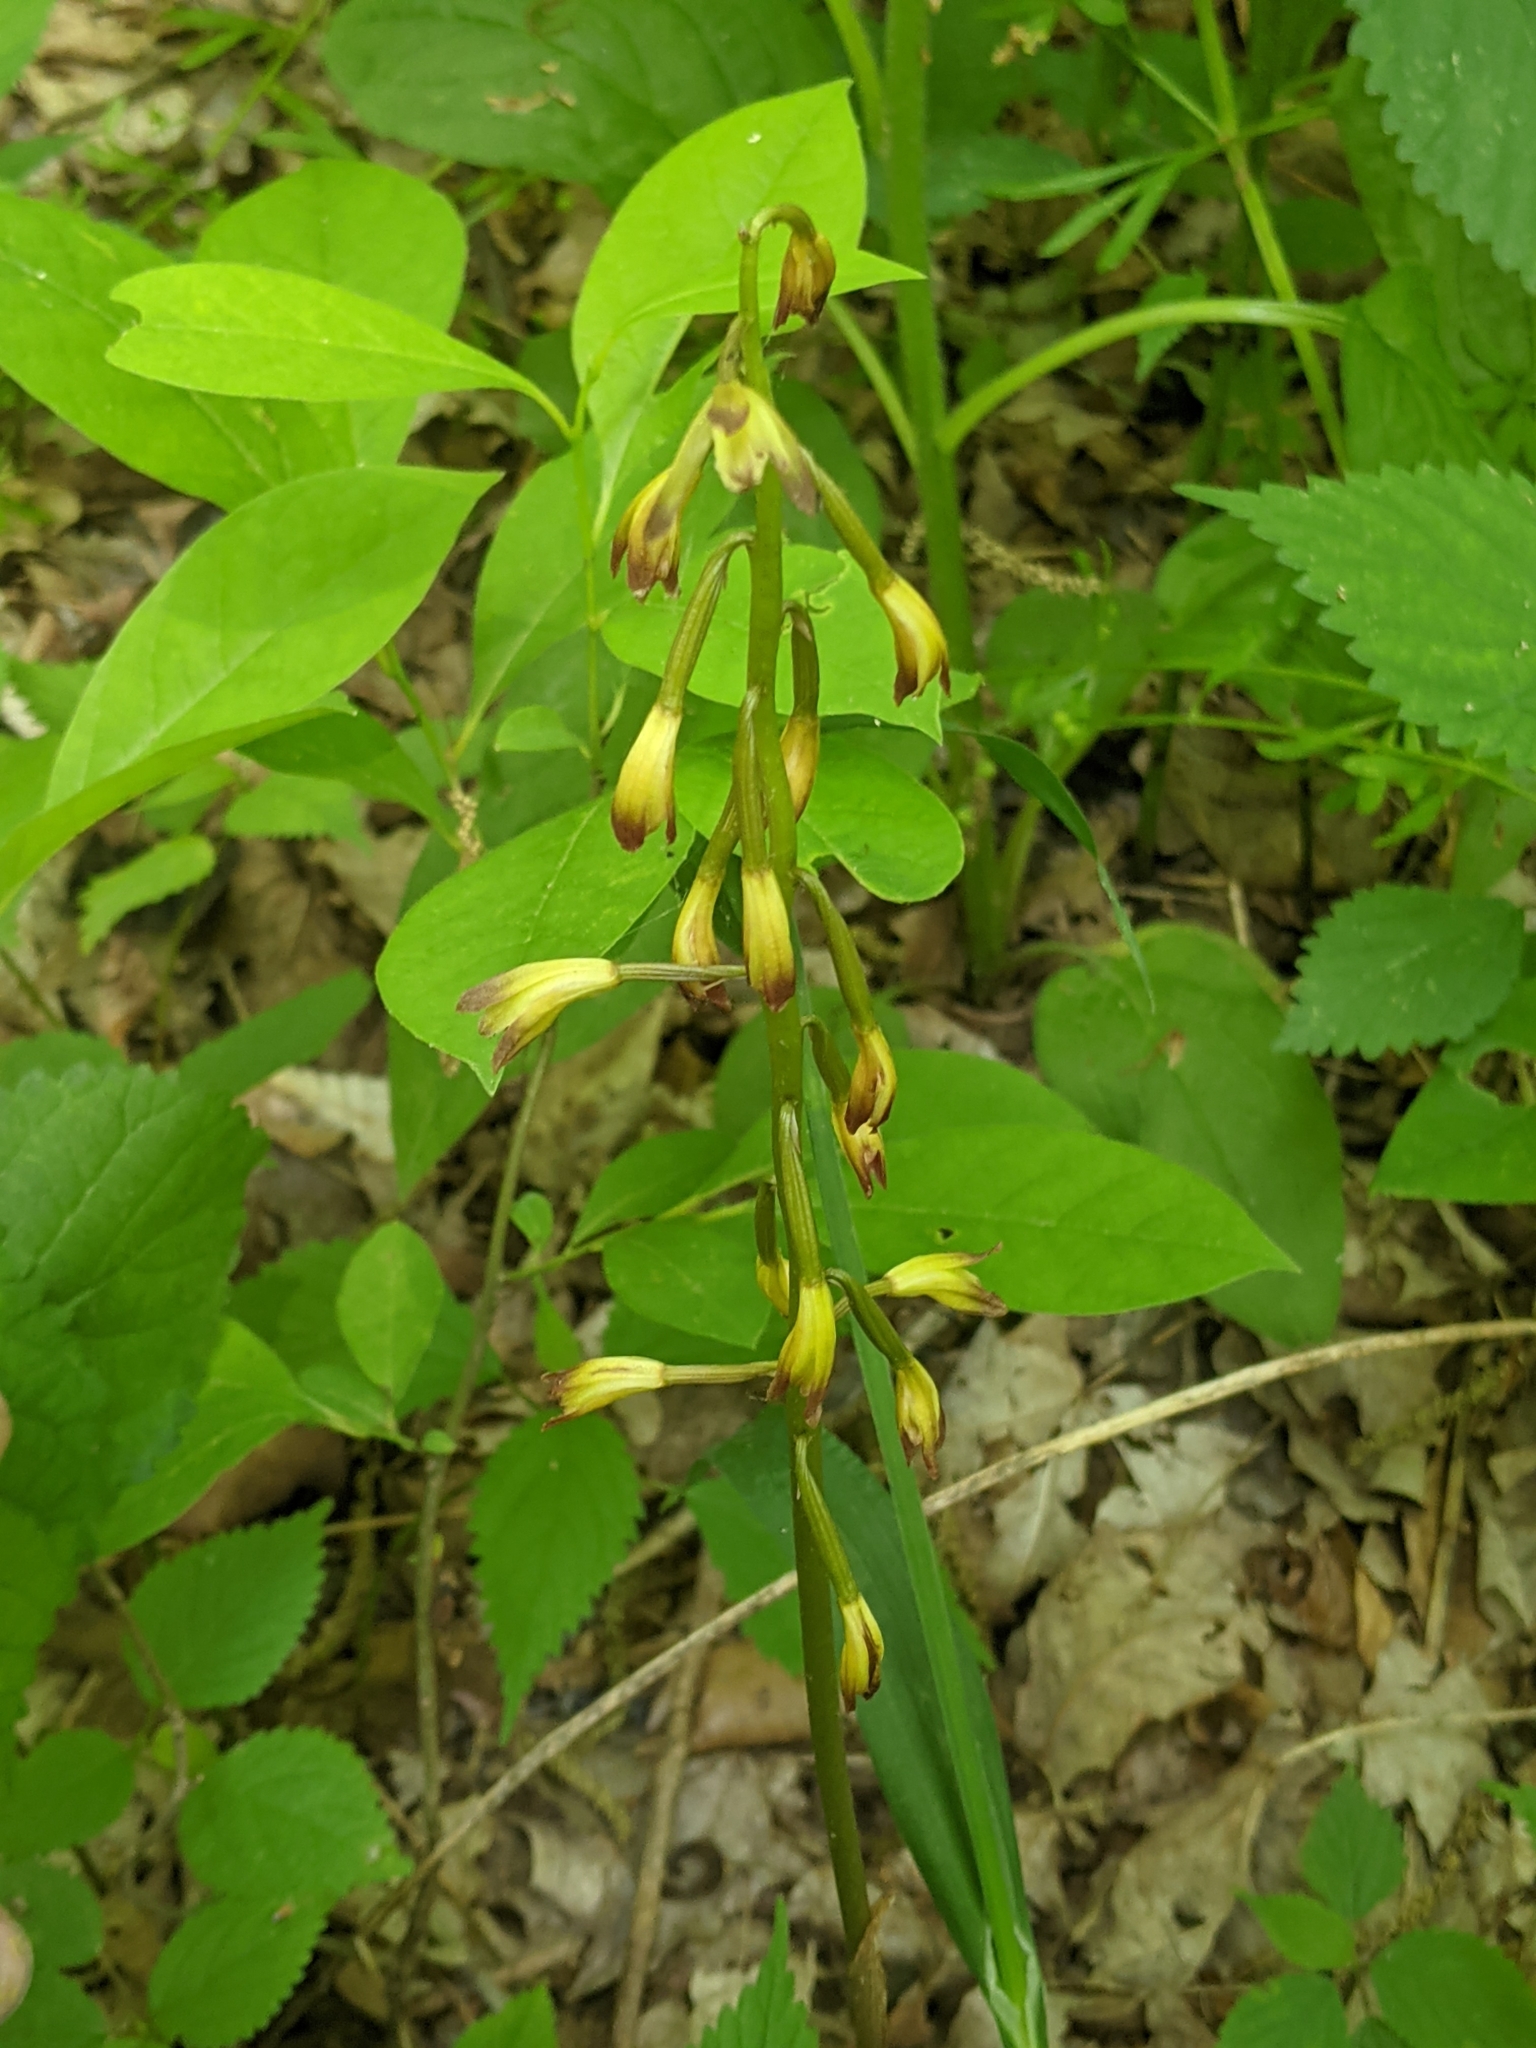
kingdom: Plantae
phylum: Tracheophyta
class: Liliopsida
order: Asparagales
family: Orchidaceae
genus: Aplectrum
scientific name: Aplectrum hyemale
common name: Adam-and-eve
